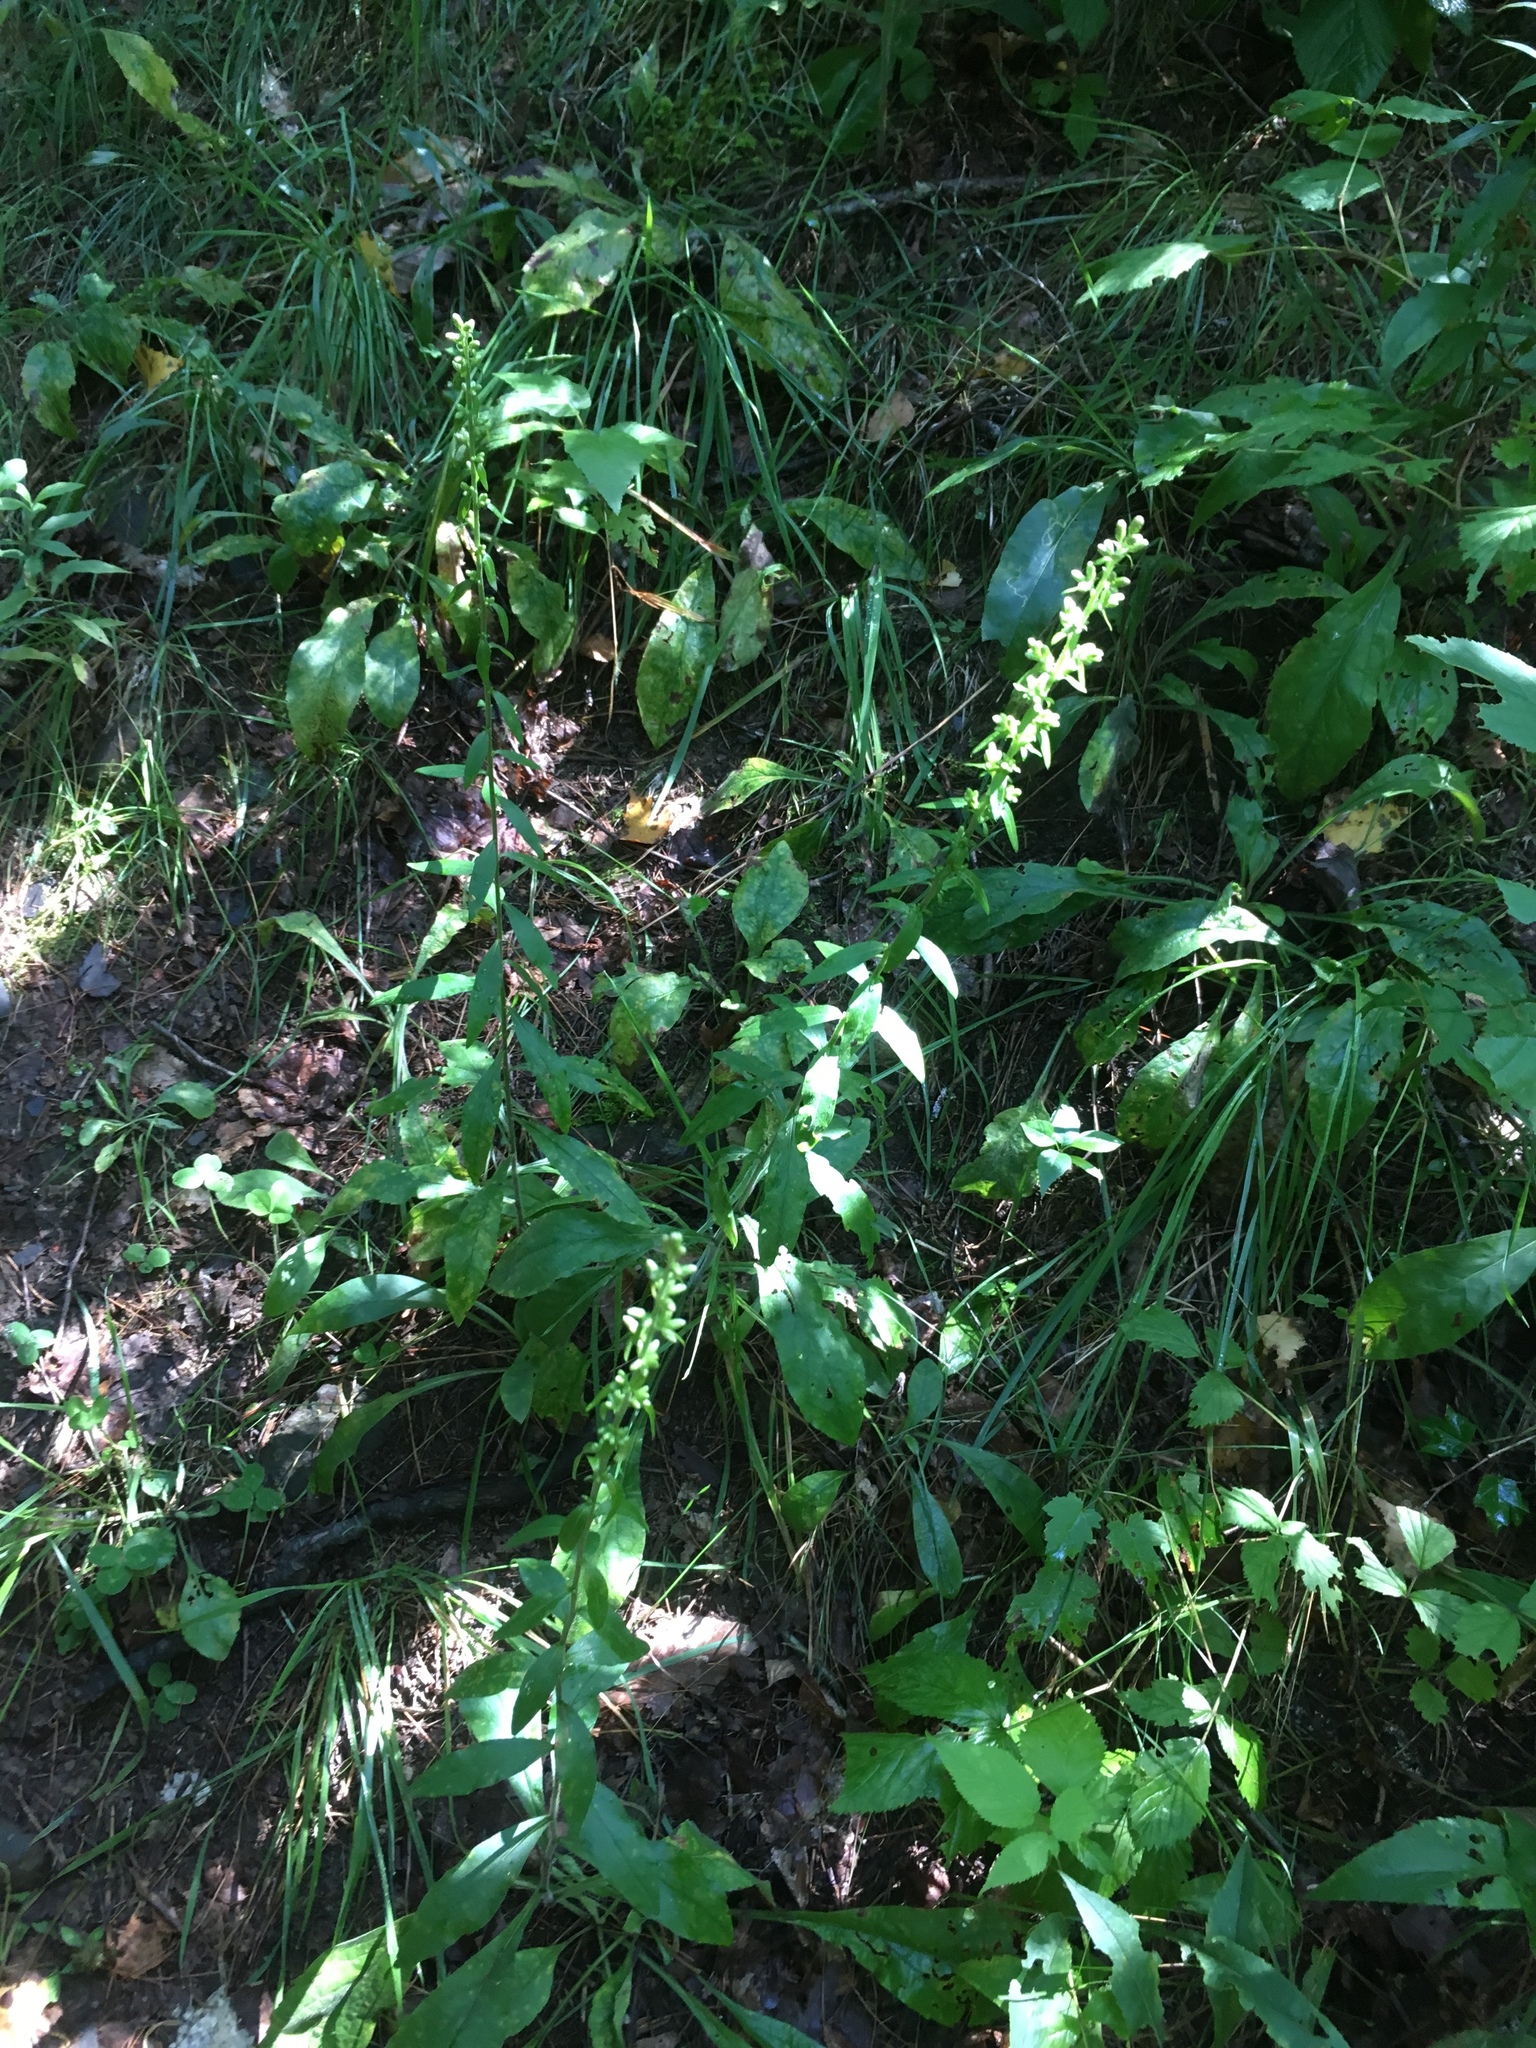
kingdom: Plantae
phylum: Tracheophyta
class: Magnoliopsida
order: Asterales
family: Asteraceae
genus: Solidago
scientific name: Solidago bicolor
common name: Silverrod
